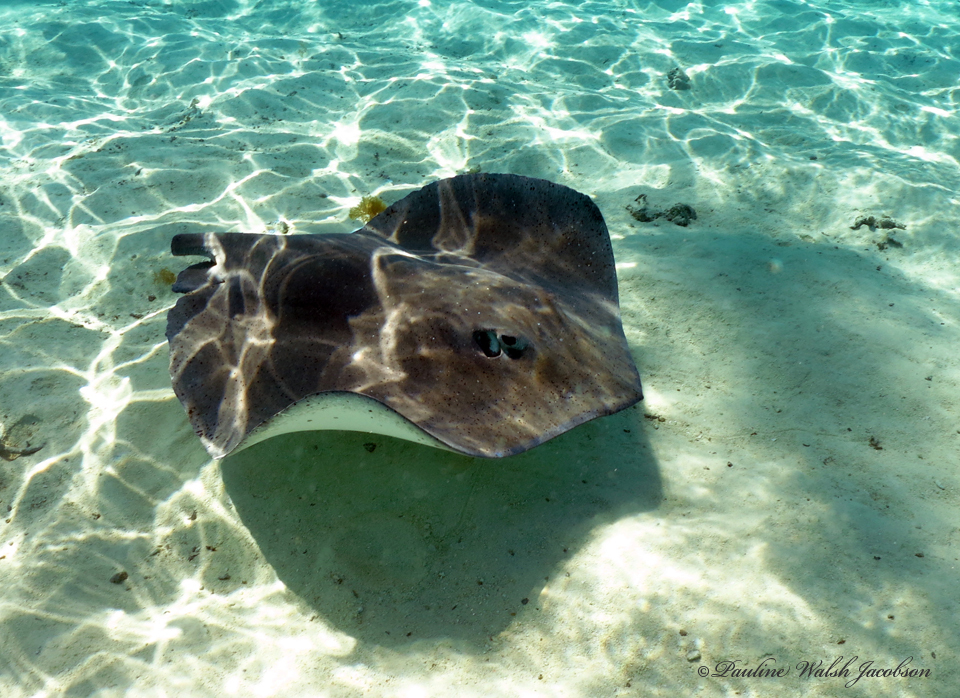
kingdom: Animalia
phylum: Chordata
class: Elasmobranchii
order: Myliobatiformes
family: Dasyatidae
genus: Pateobatis
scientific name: Pateobatis fai
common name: Pink whipray
